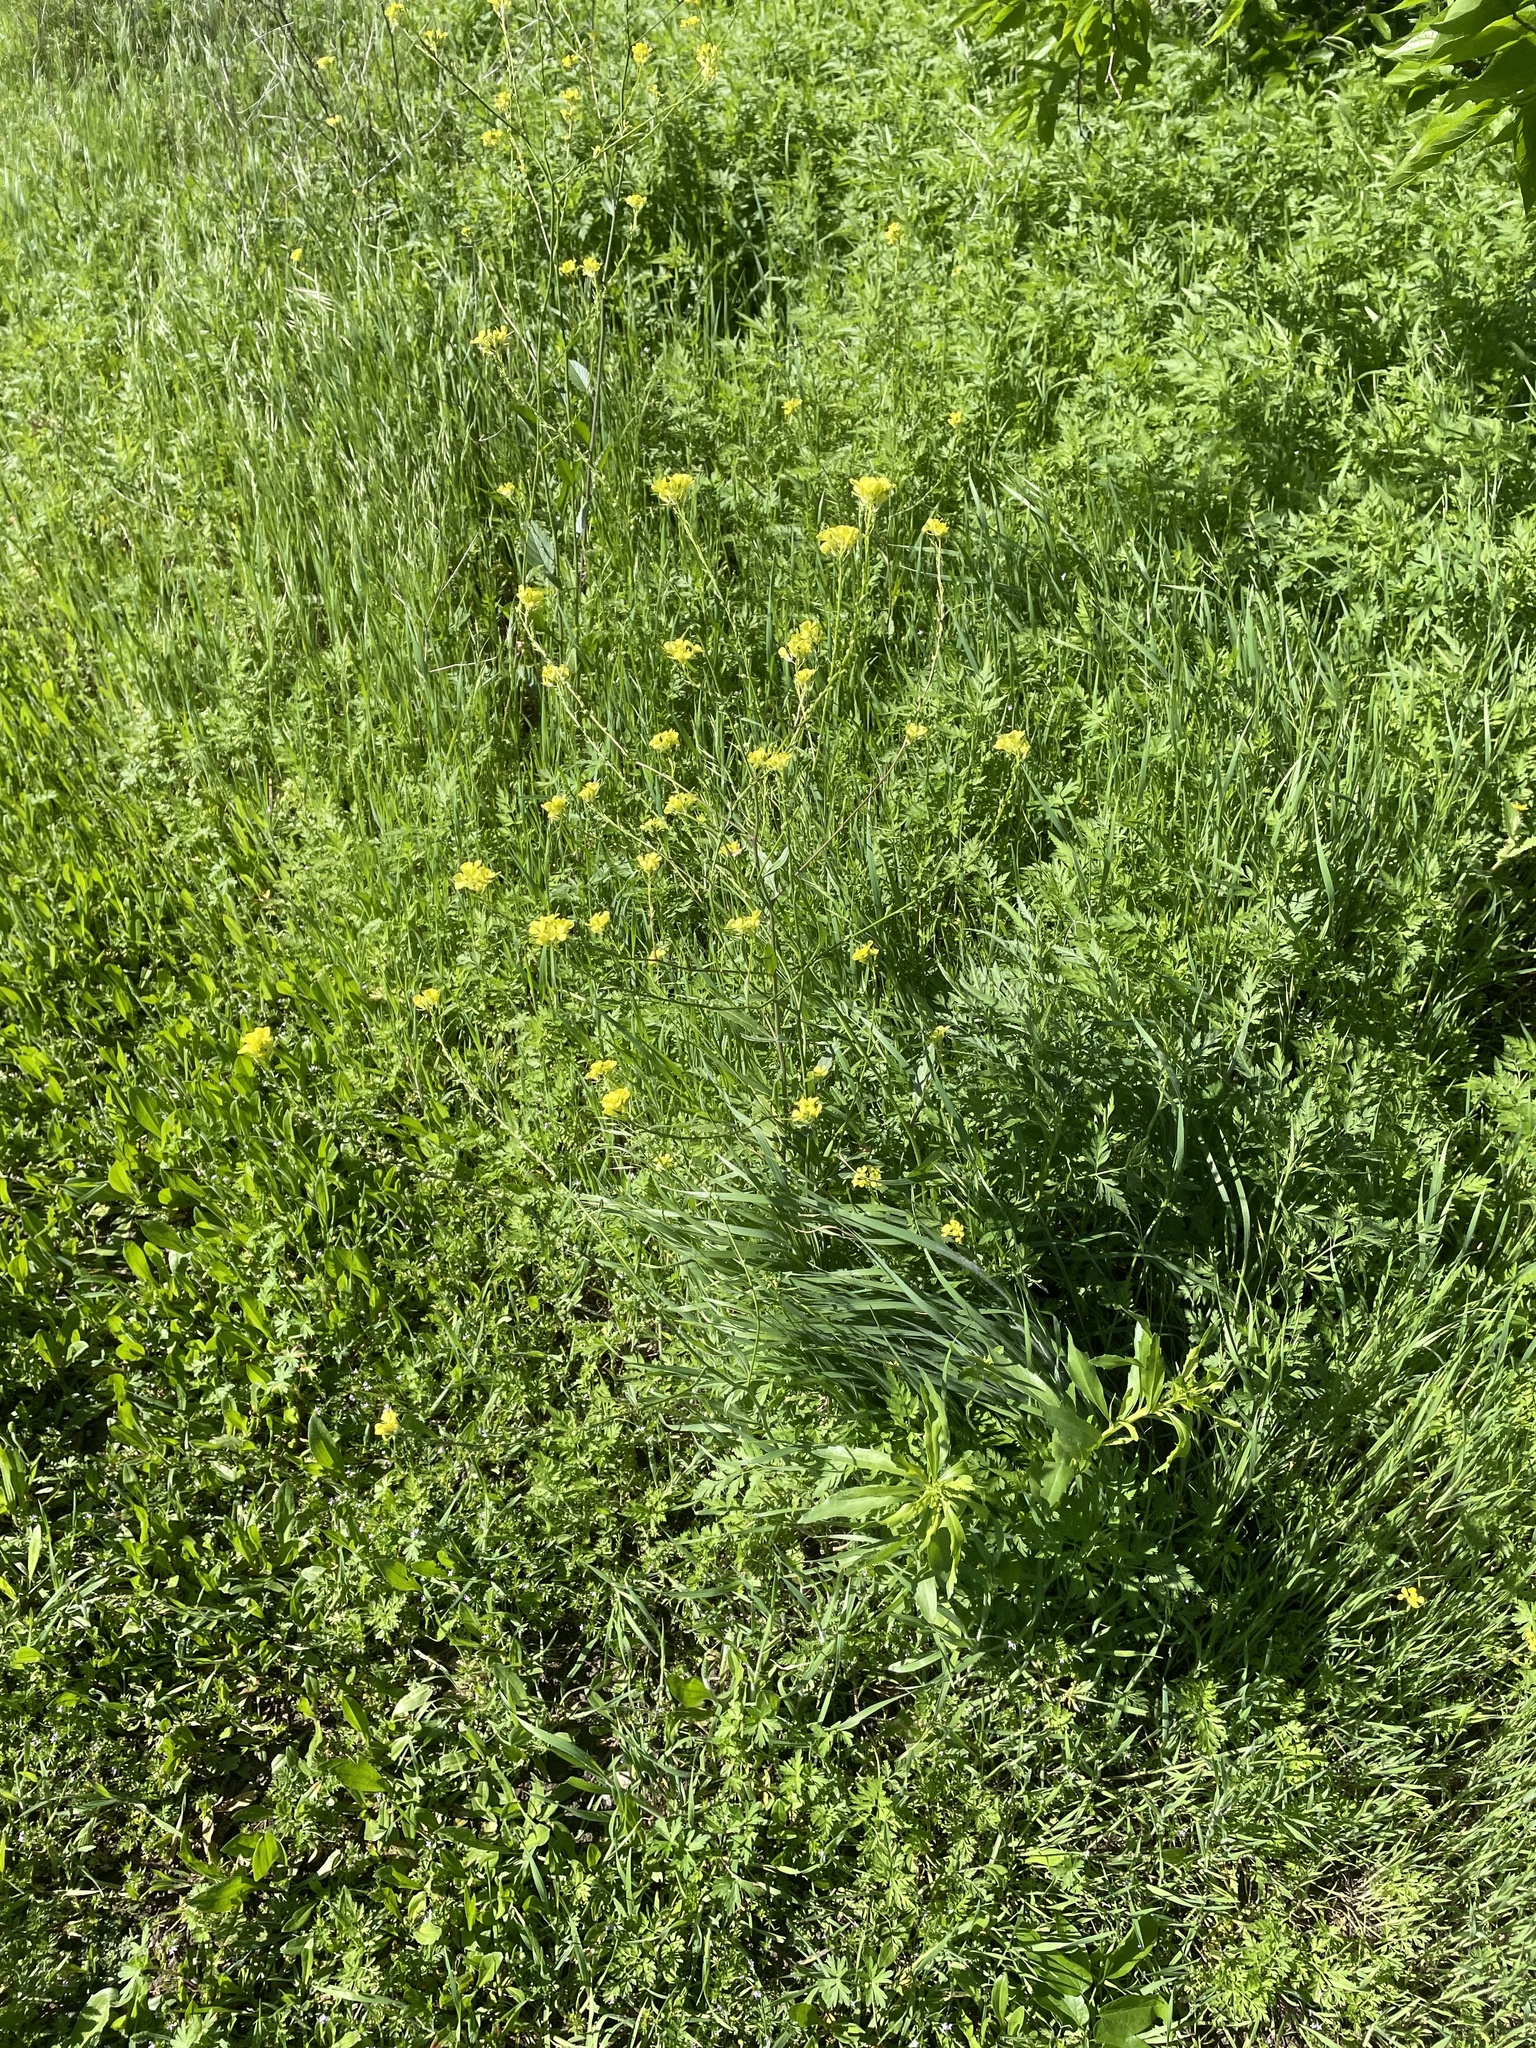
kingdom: Plantae
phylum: Tracheophyta
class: Magnoliopsida
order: Brassicales
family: Brassicaceae
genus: Rapistrum
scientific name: Rapistrum rugosum
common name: Annual bastardcabbage
